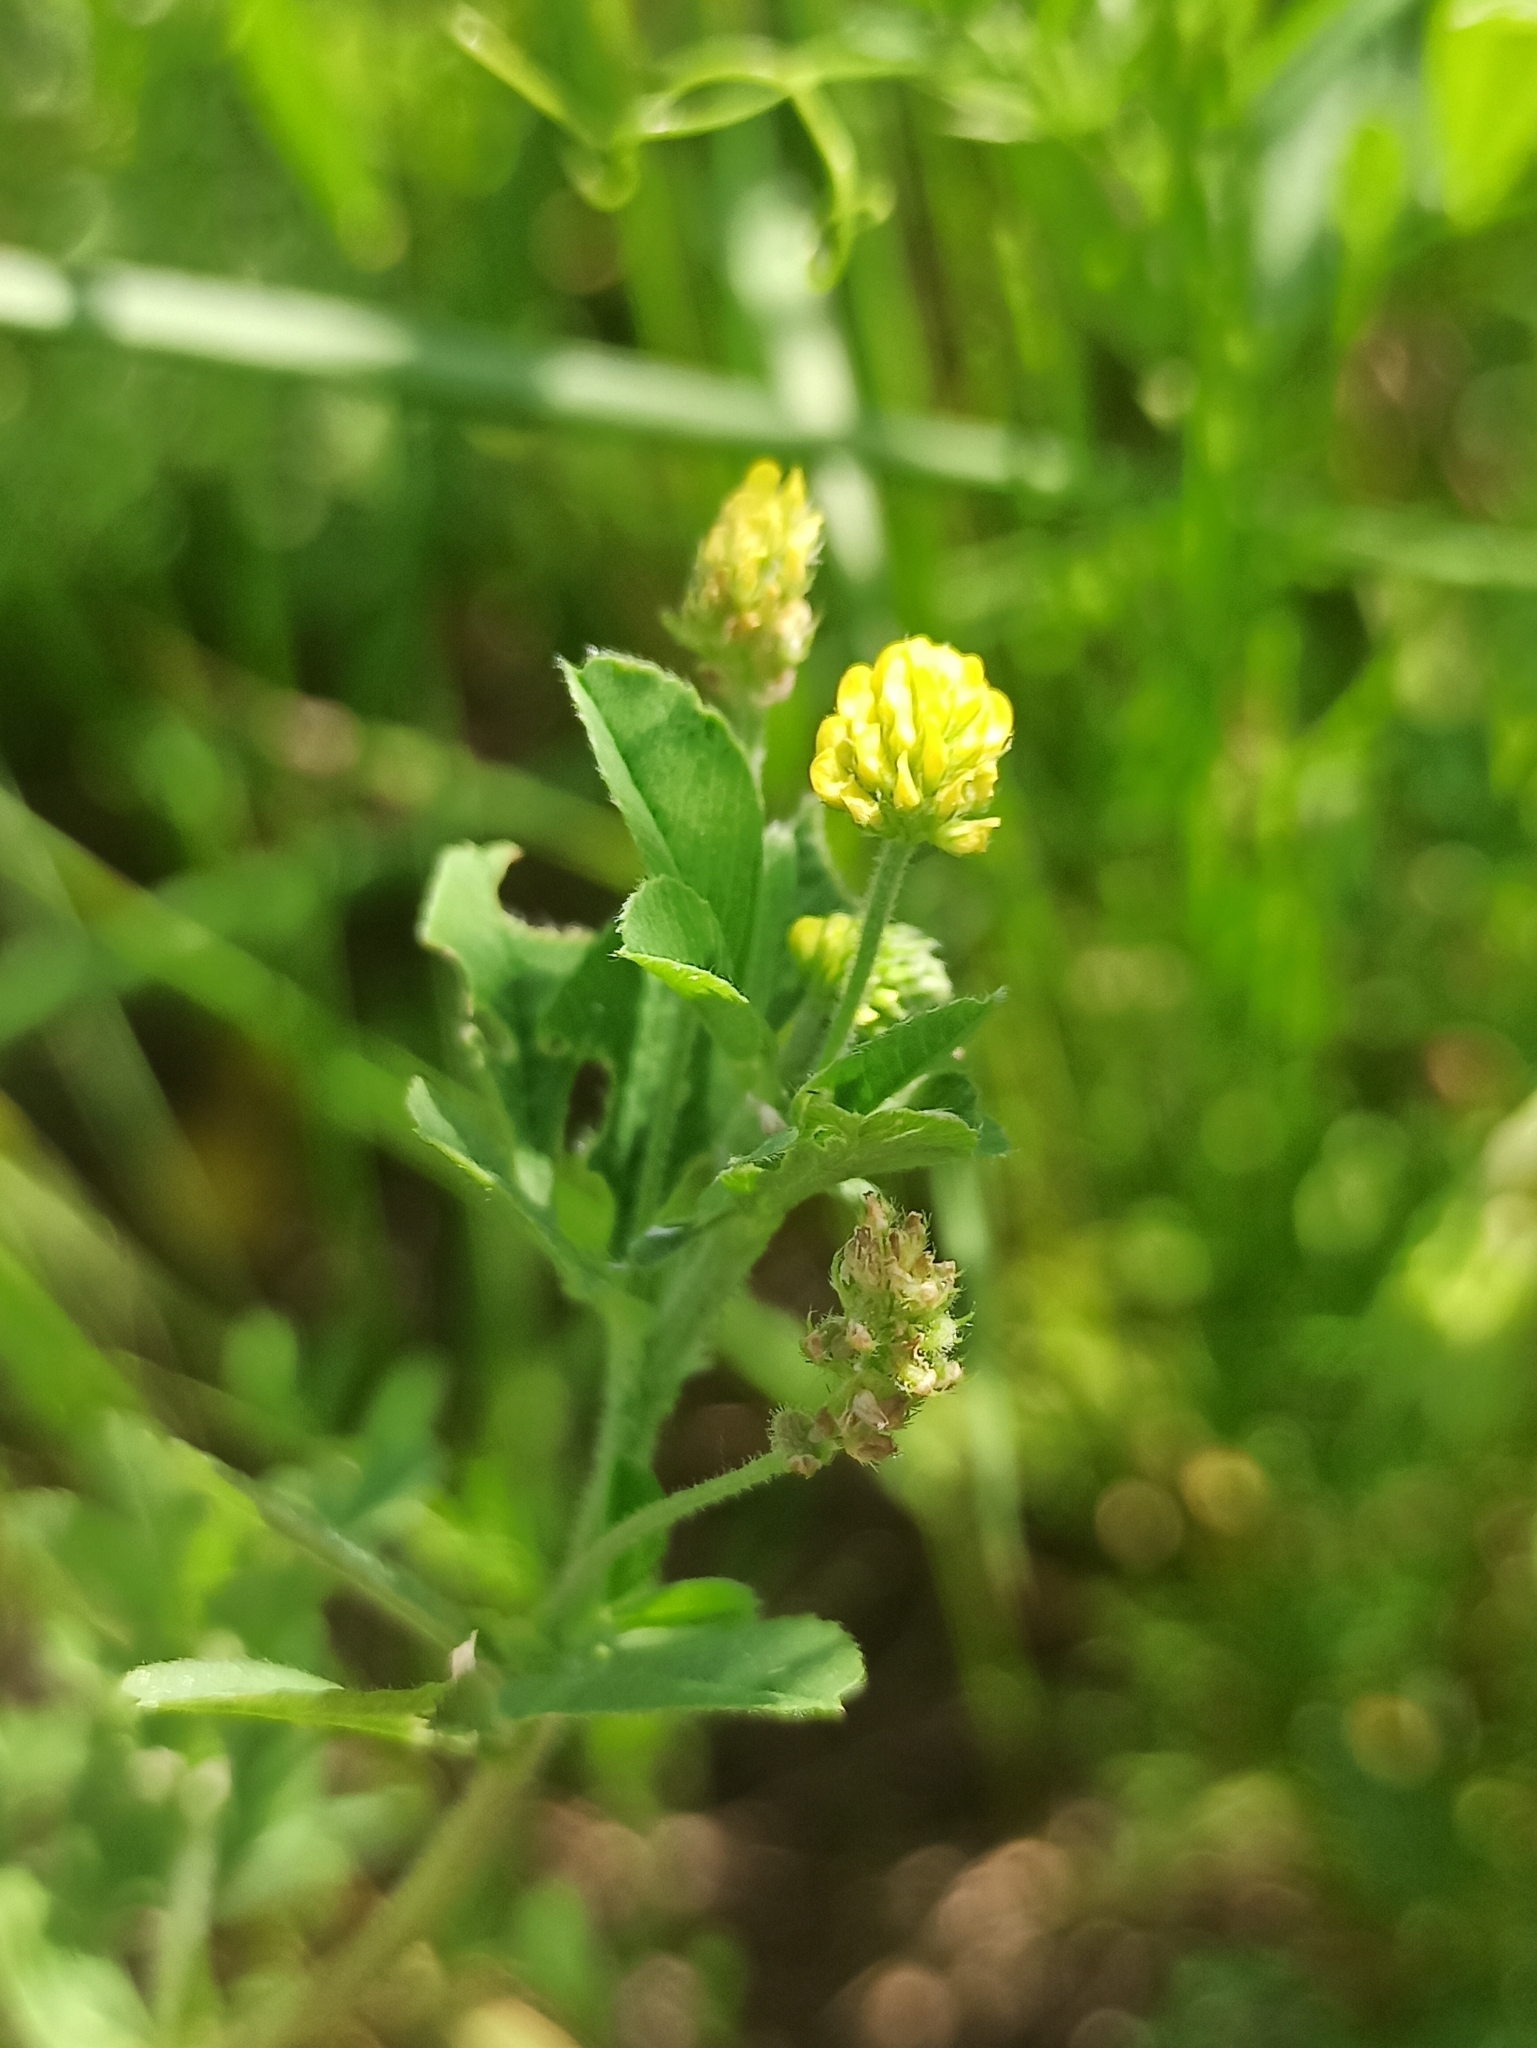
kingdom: Plantae
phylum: Tracheophyta
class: Magnoliopsida
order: Fabales
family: Fabaceae
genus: Medicago
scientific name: Medicago lupulina
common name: Black medick
